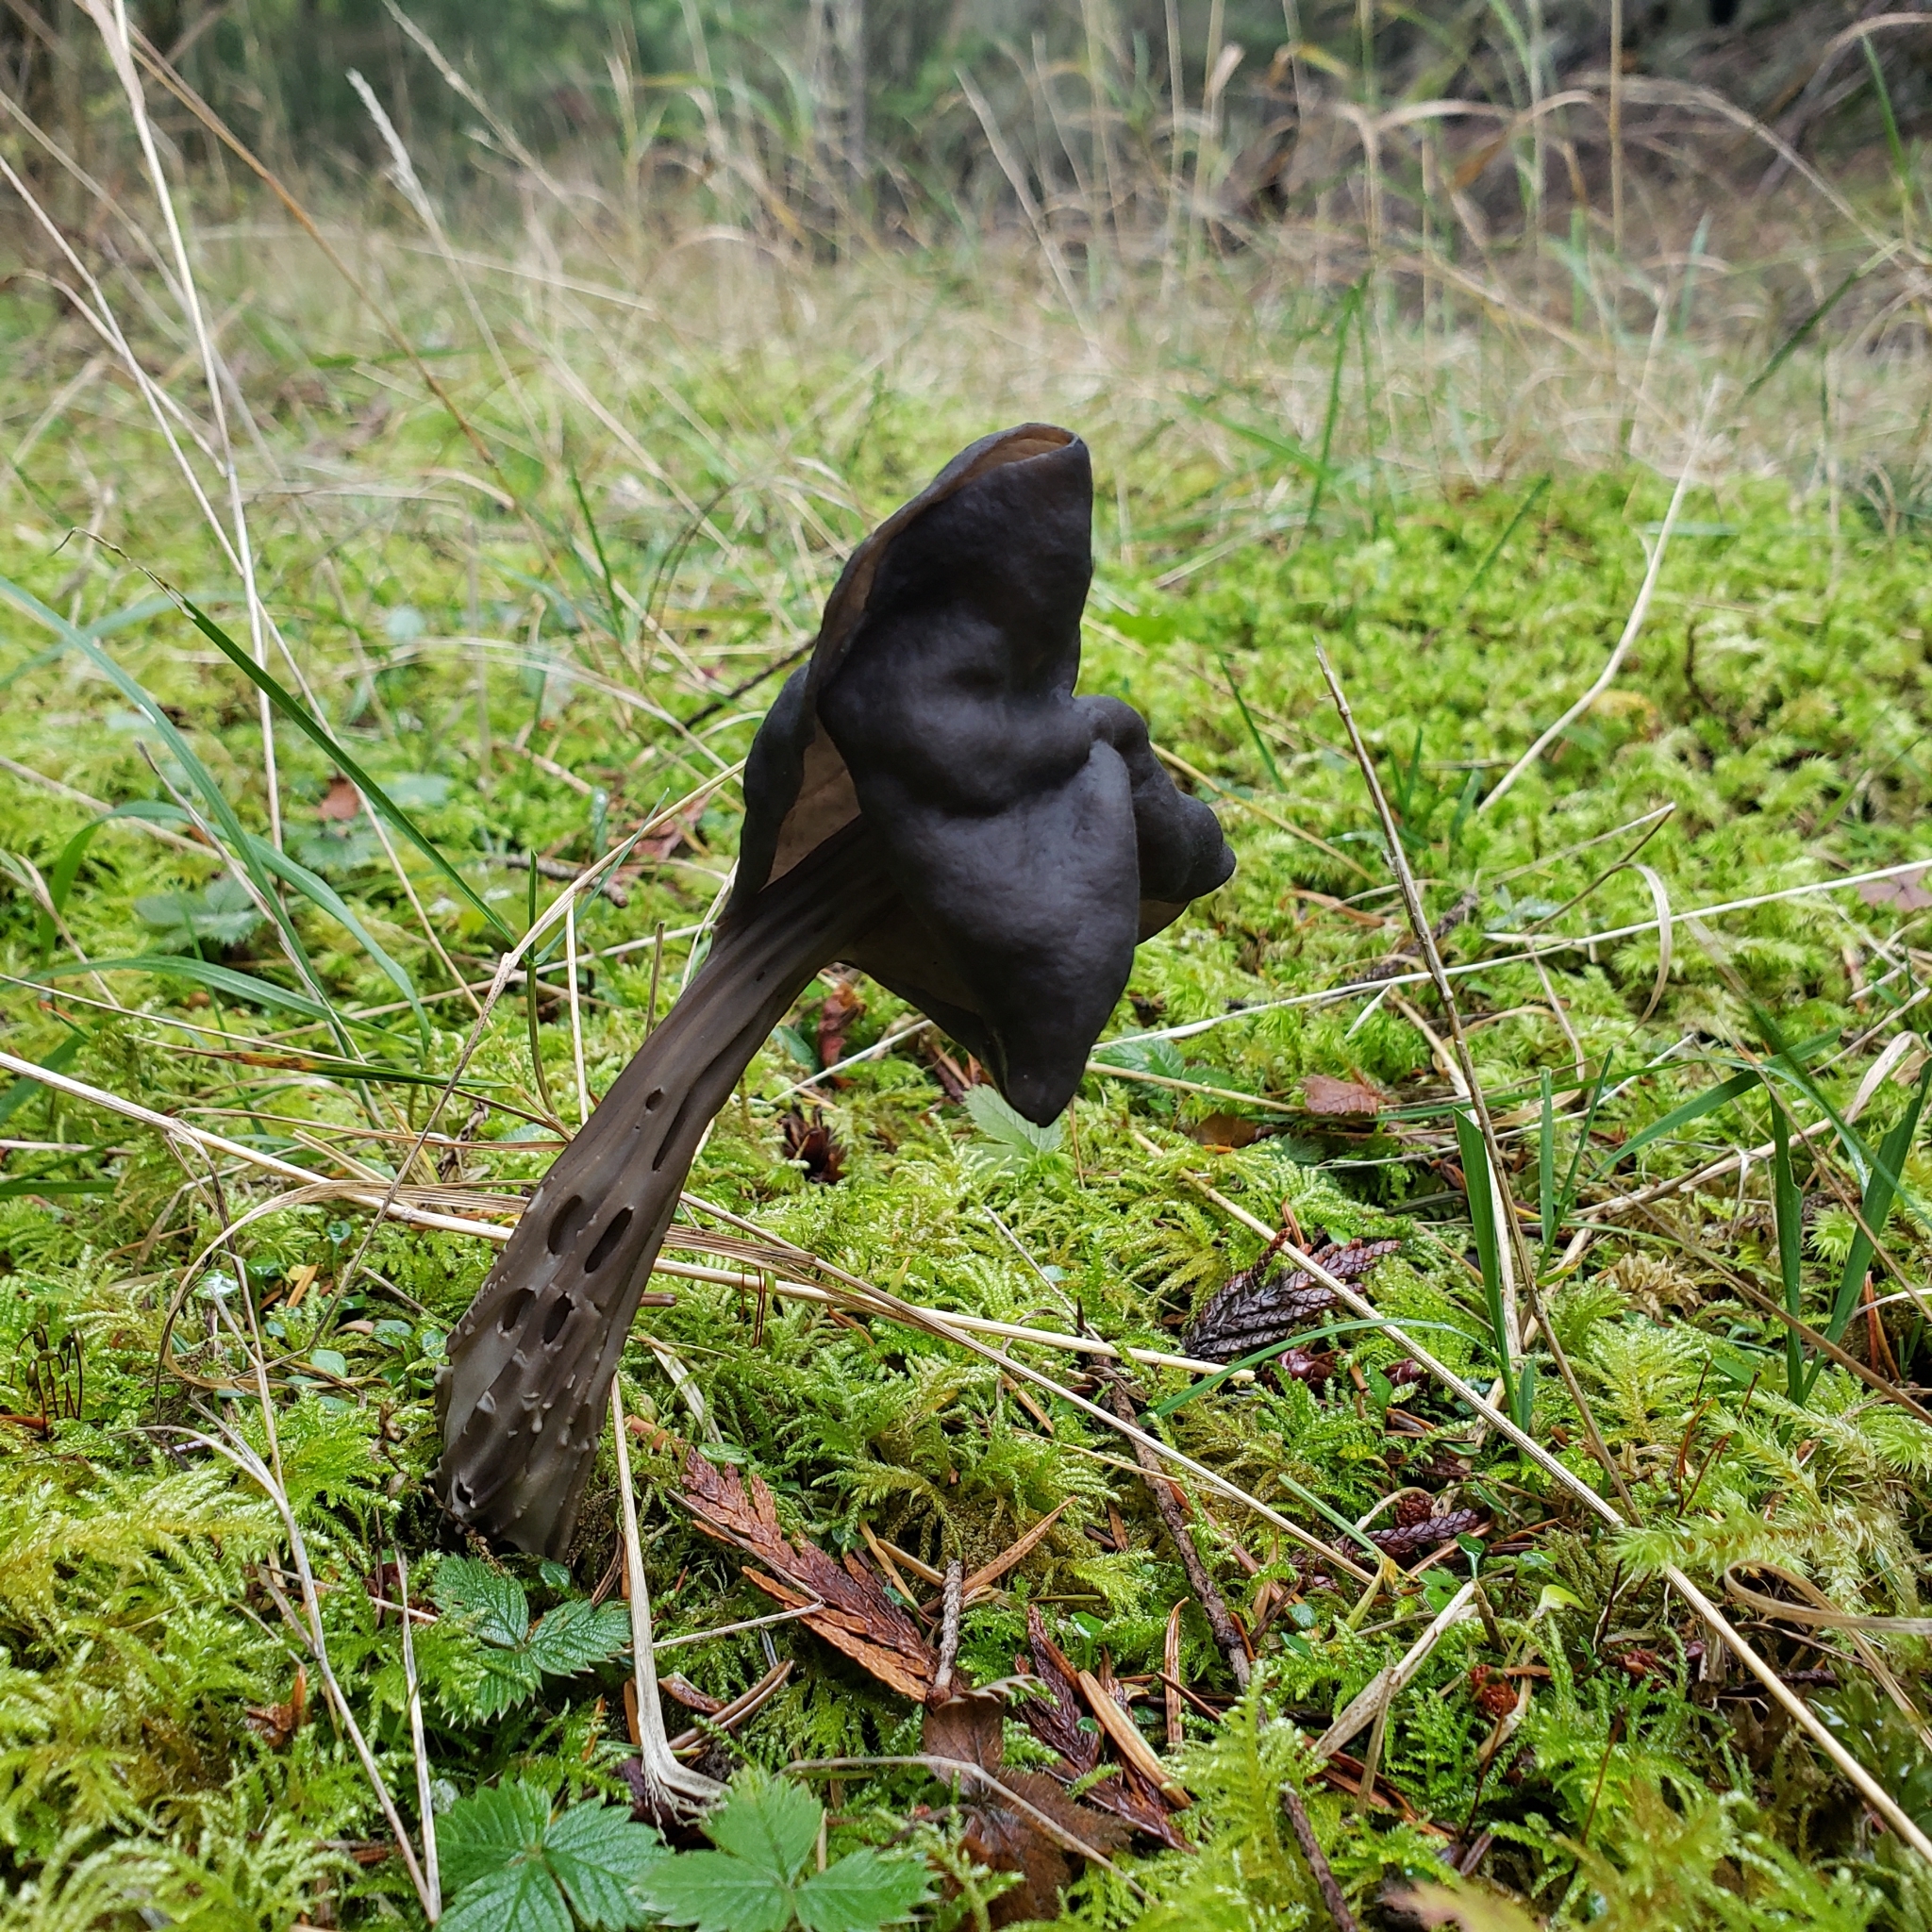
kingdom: Fungi
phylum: Ascomycota
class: Pezizomycetes
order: Pezizales
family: Helvellaceae
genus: Helvella
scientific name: Helvella vespertina
